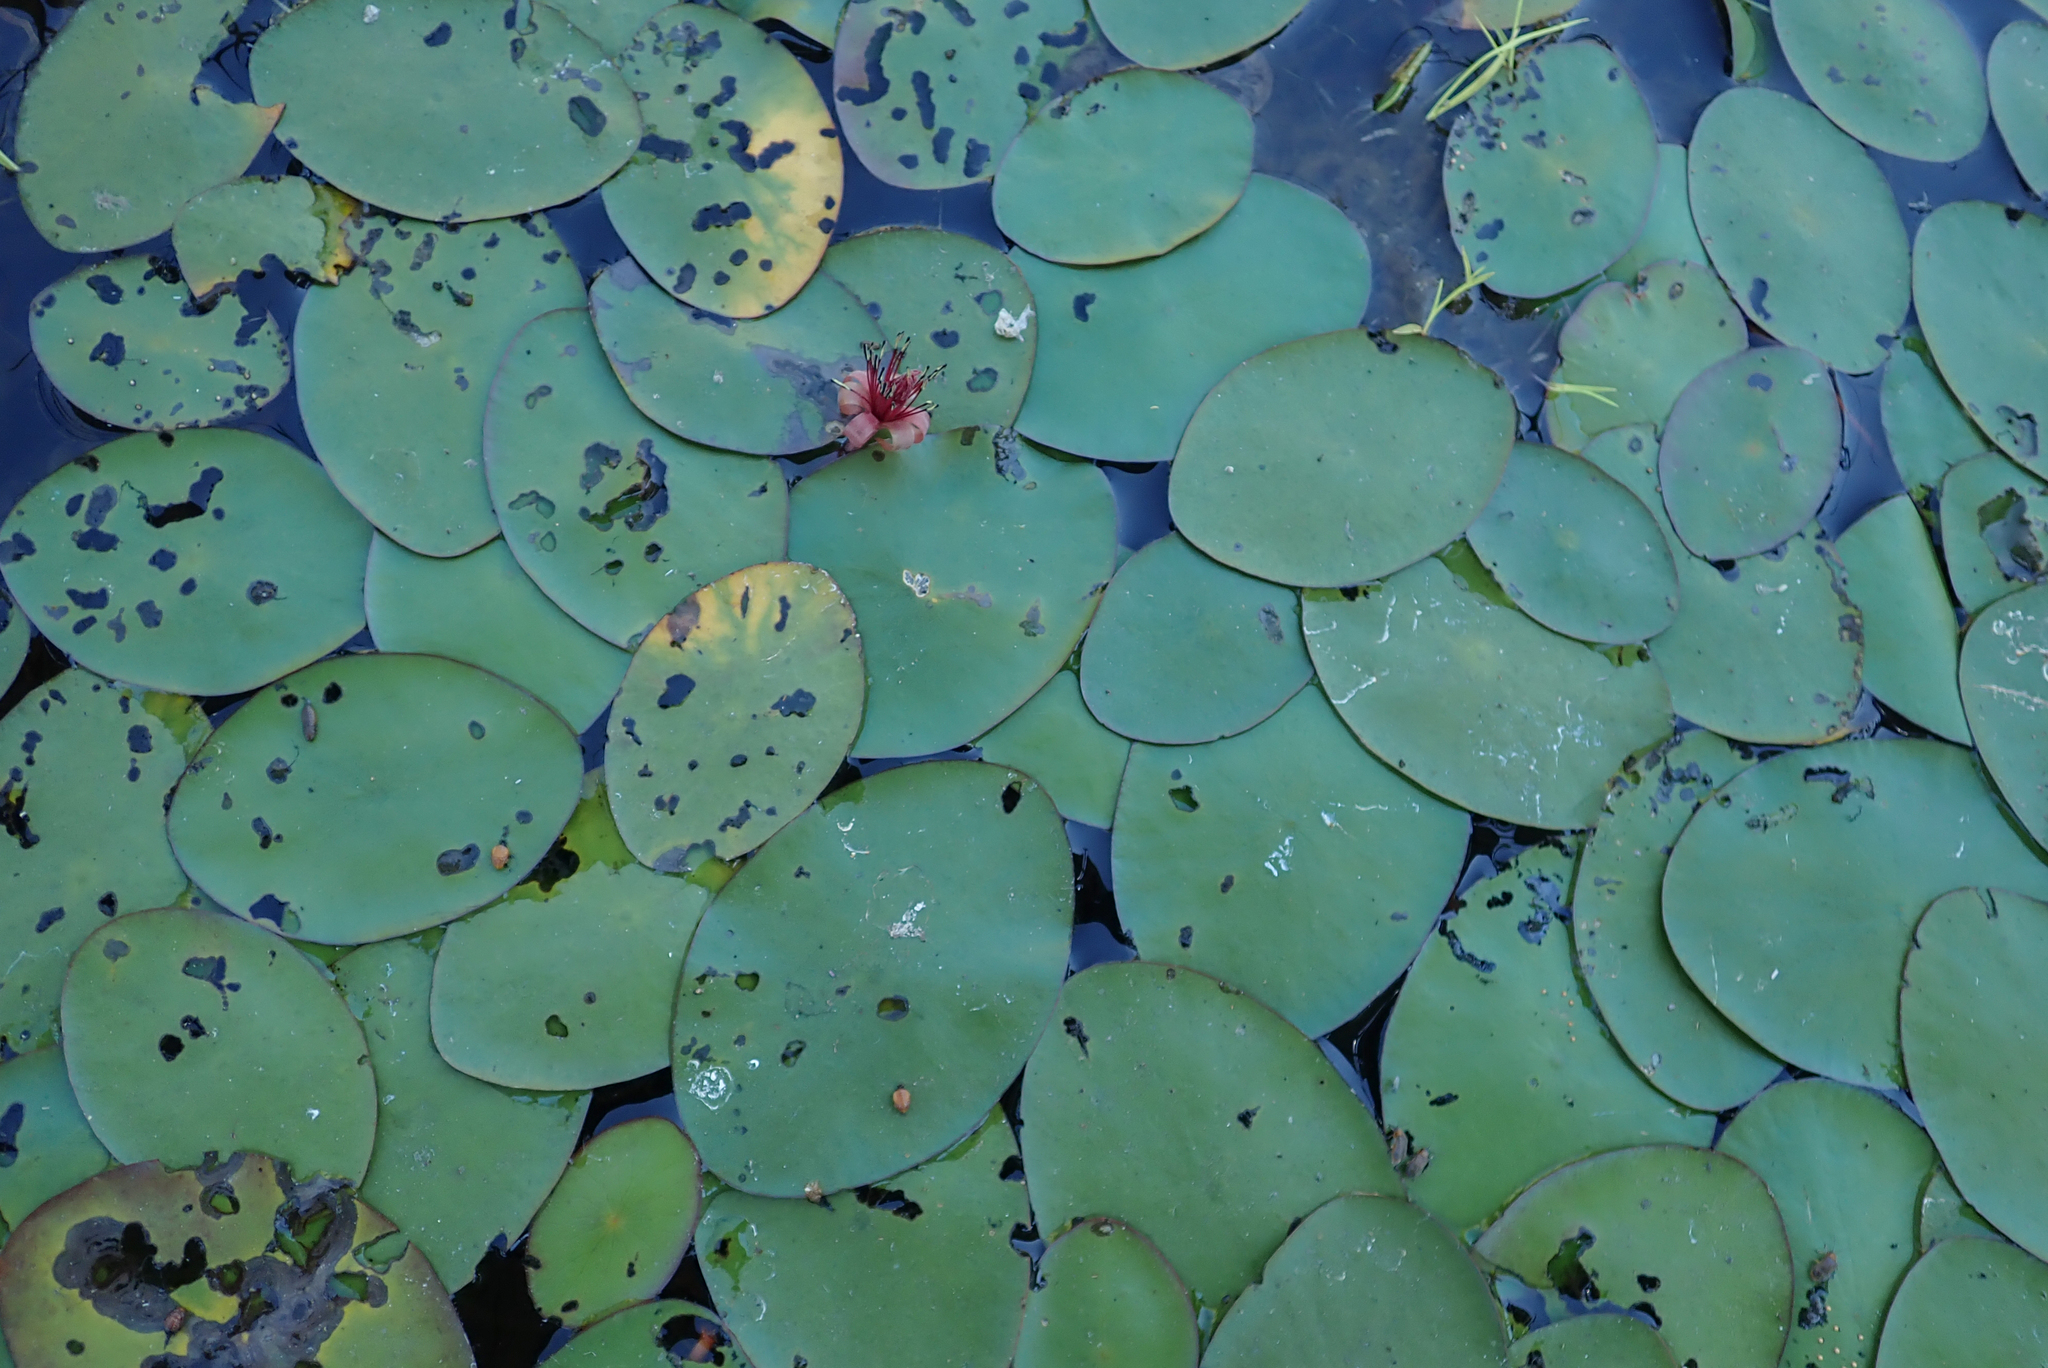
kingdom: Plantae
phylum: Tracheophyta
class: Magnoliopsida
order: Nymphaeales
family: Cabombaceae
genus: Brasenia
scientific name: Brasenia schreberi
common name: Water-shield
